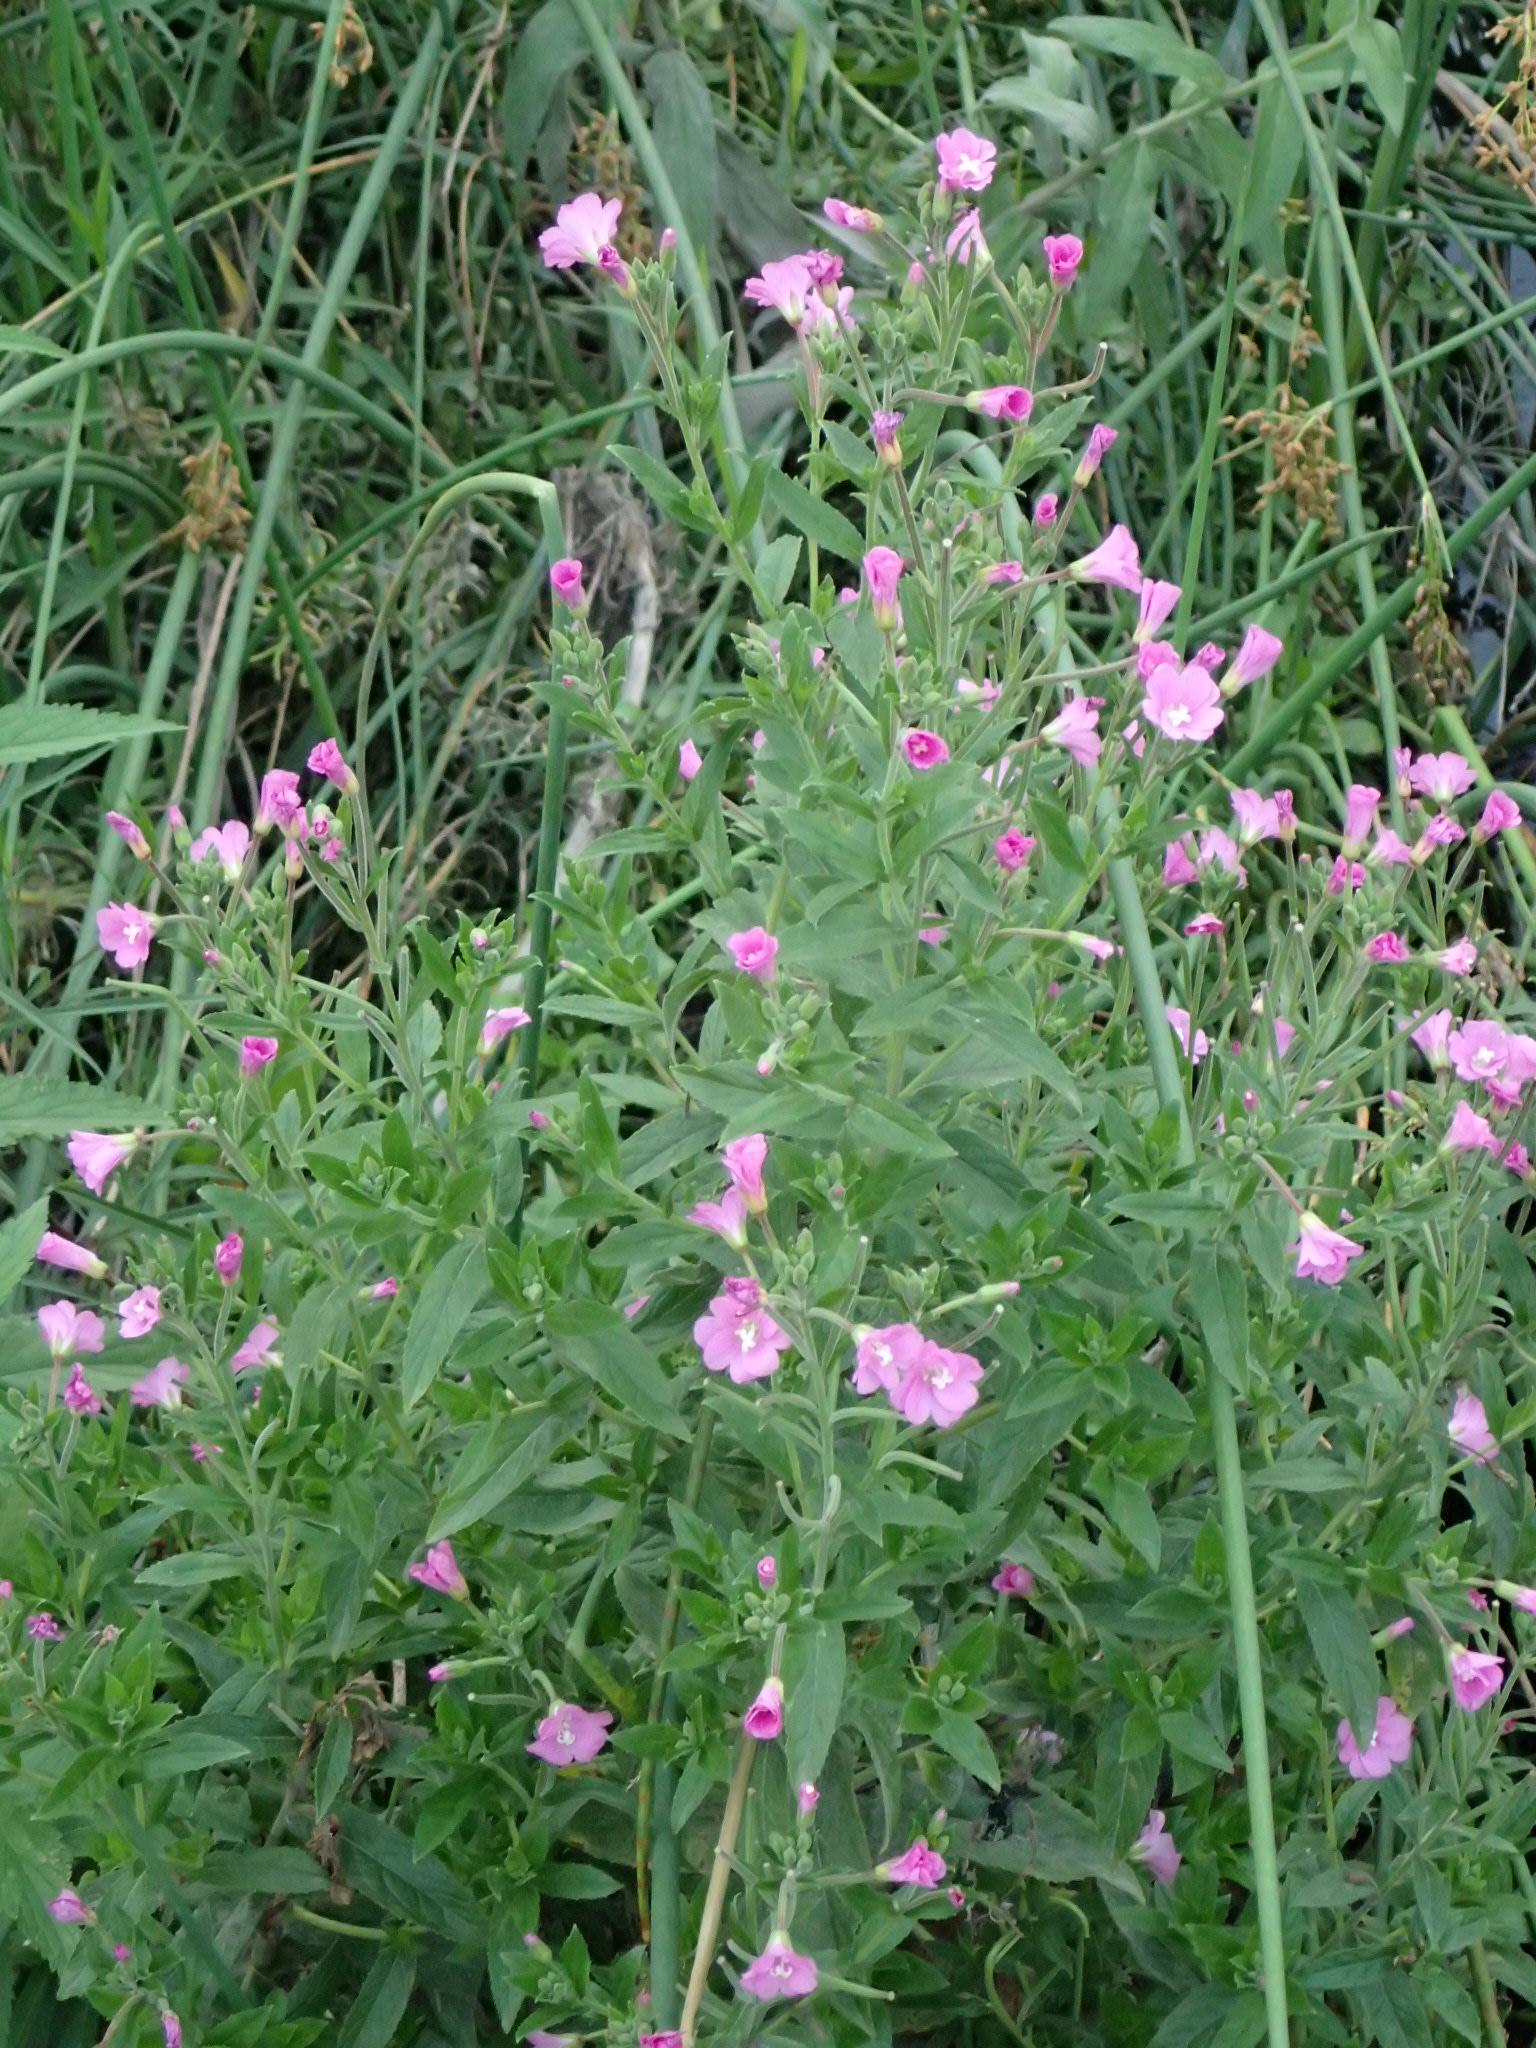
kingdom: Plantae
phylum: Tracheophyta
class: Magnoliopsida
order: Myrtales
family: Onagraceae
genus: Epilobium
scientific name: Epilobium hirsutum
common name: Great willowherb
